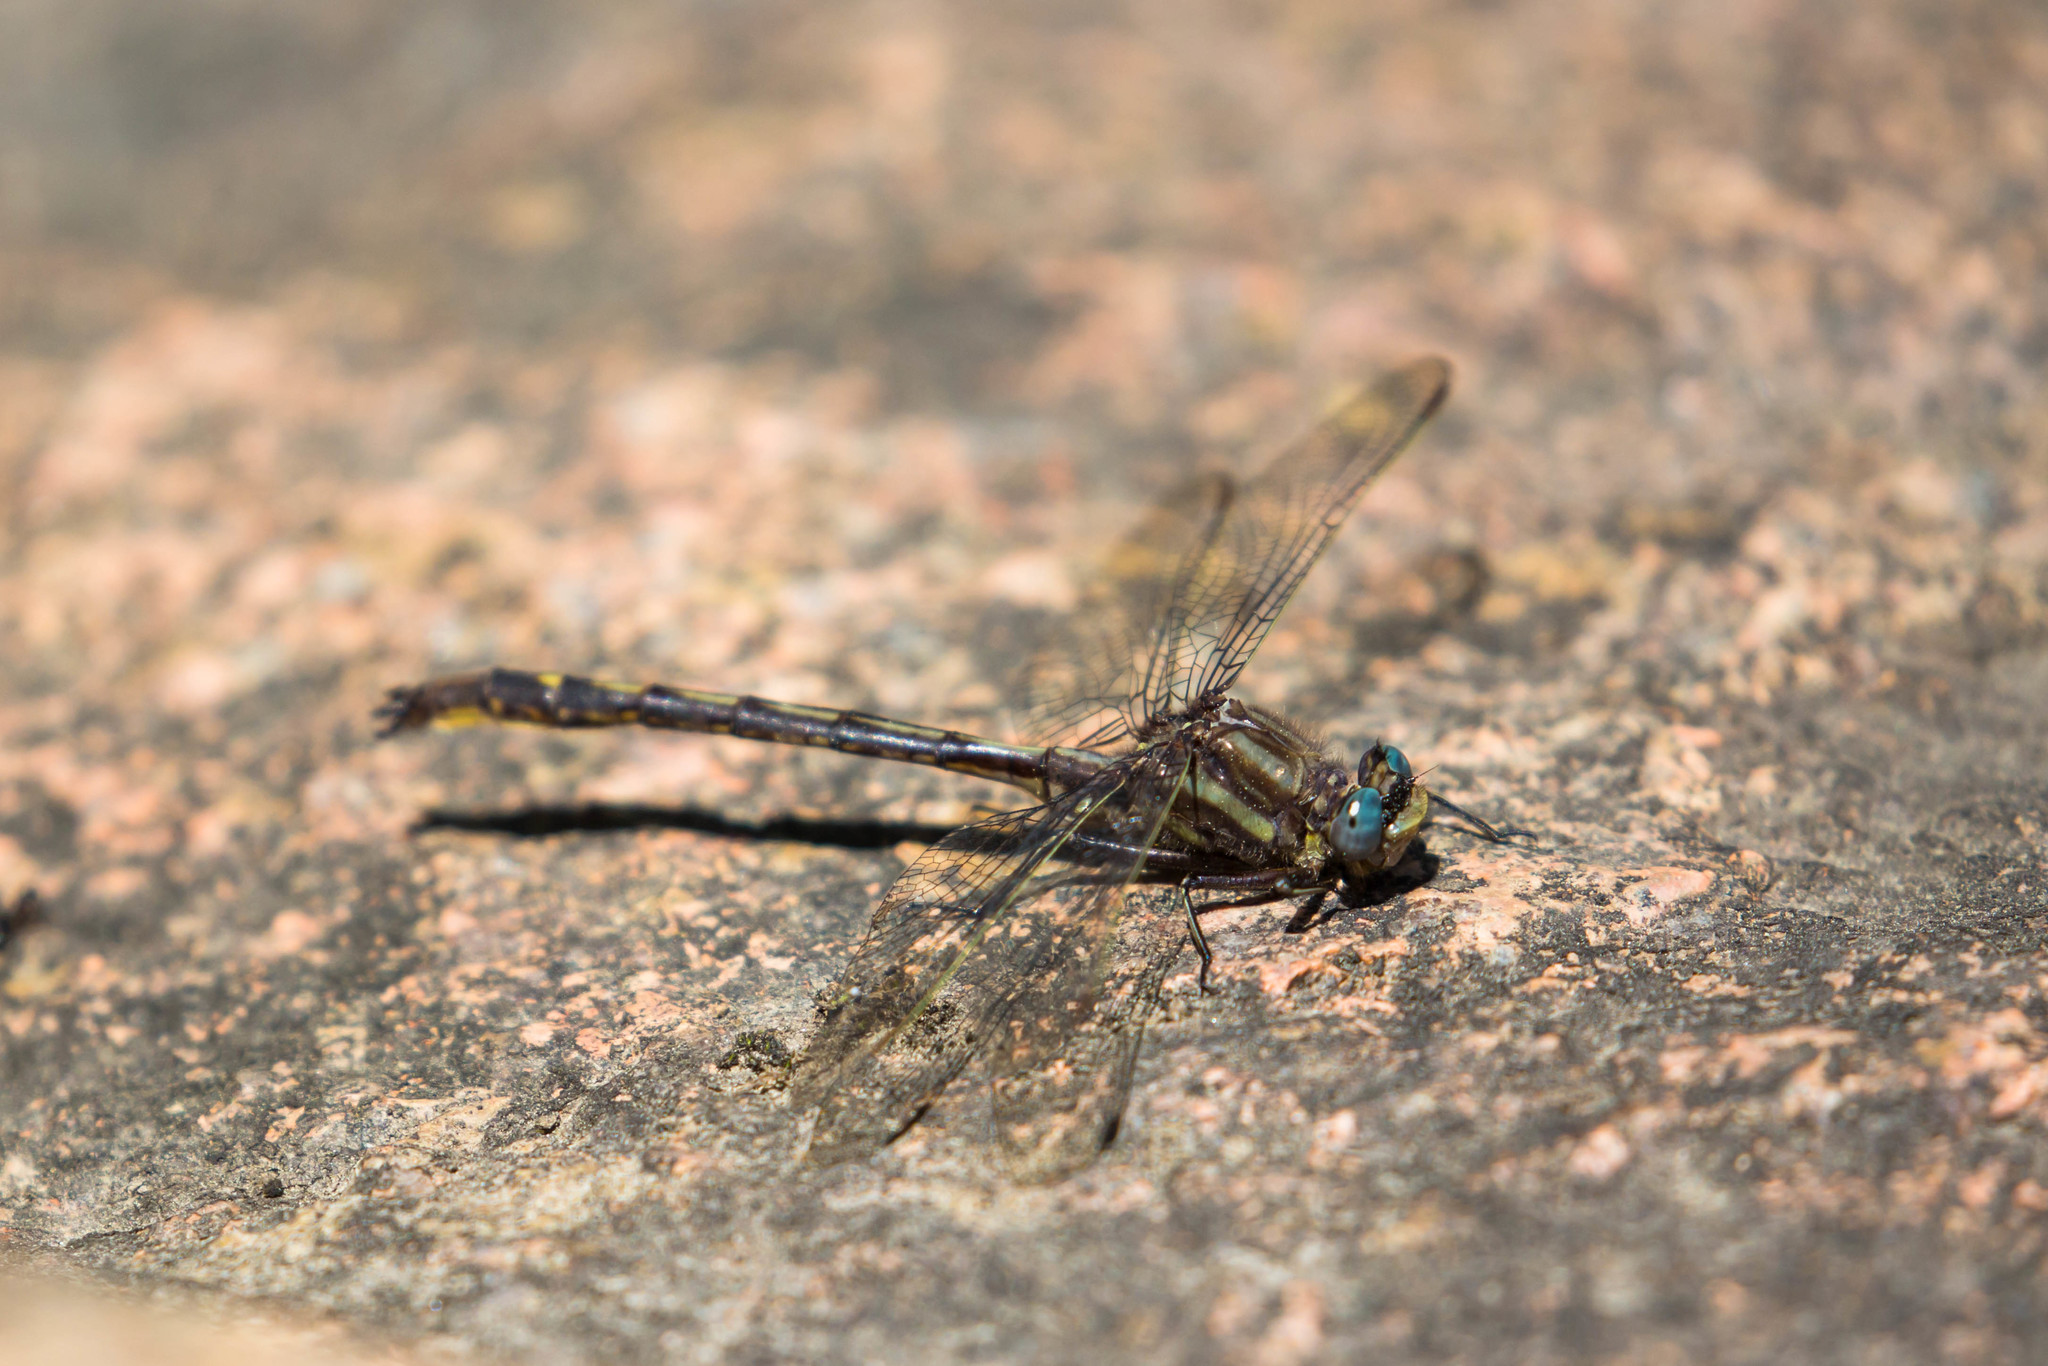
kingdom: Animalia
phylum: Arthropoda
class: Insecta
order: Odonata
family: Gomphidae
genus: Phanogomphus
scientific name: Phanogomphus spicatus
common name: Dusky clubtail
